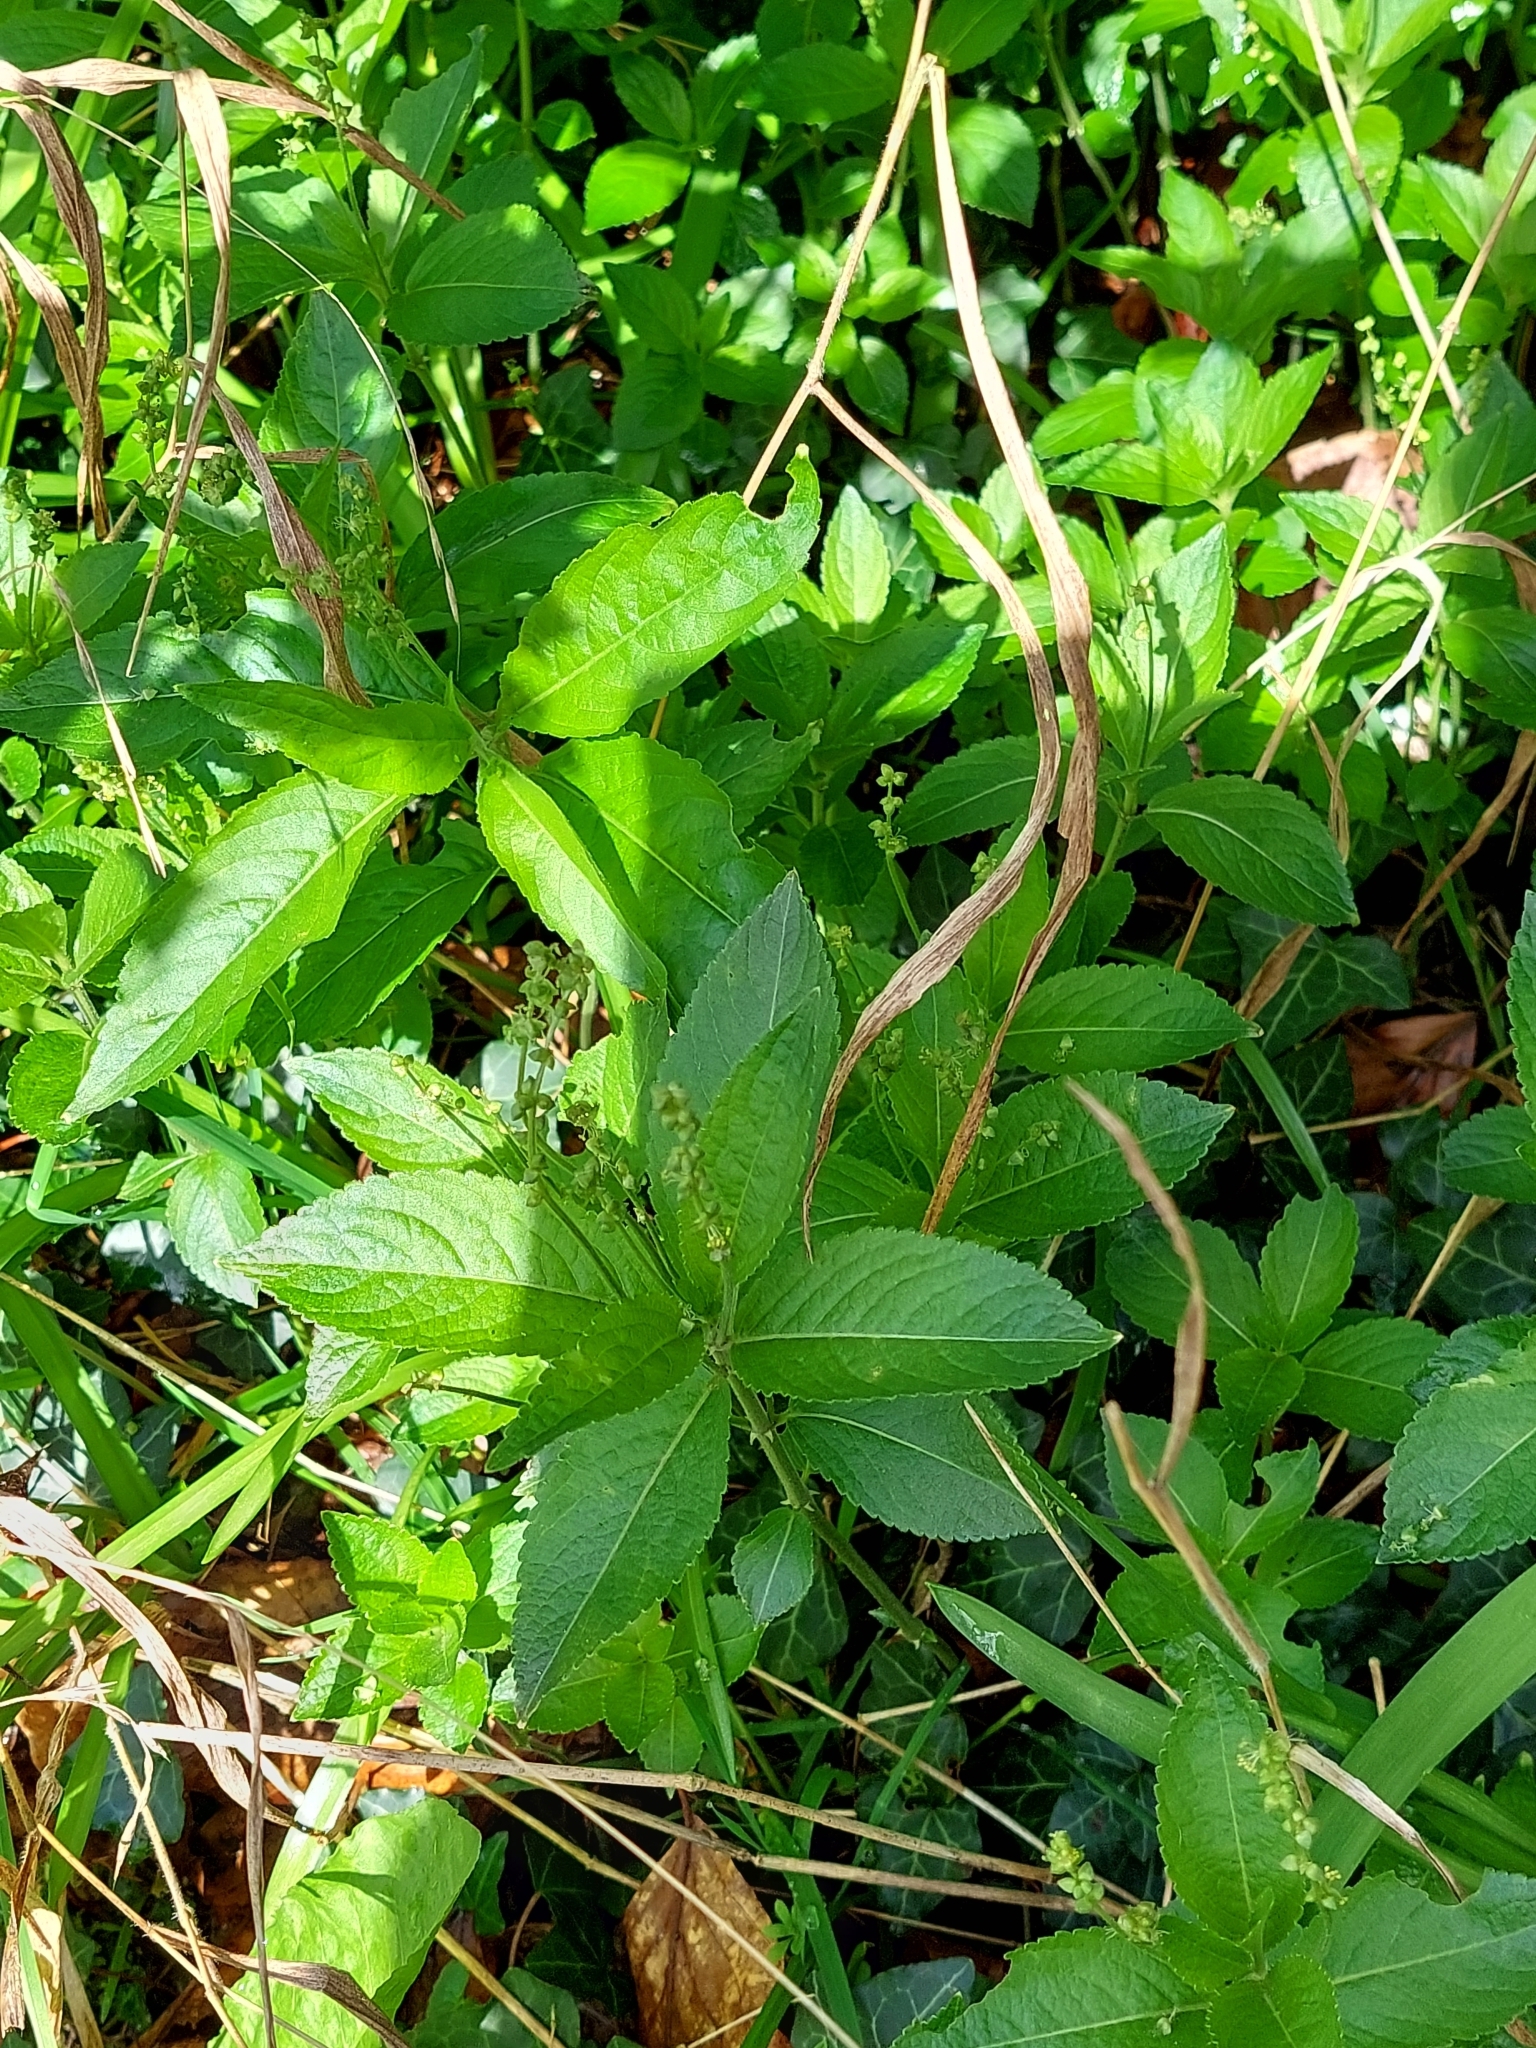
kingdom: Plantae
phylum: Tracheophyta
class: Magnoliopsida
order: Malpighiales
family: Euphorbiaceae
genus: Mercurialis
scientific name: Mercurialis perennis
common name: Dog mercury
